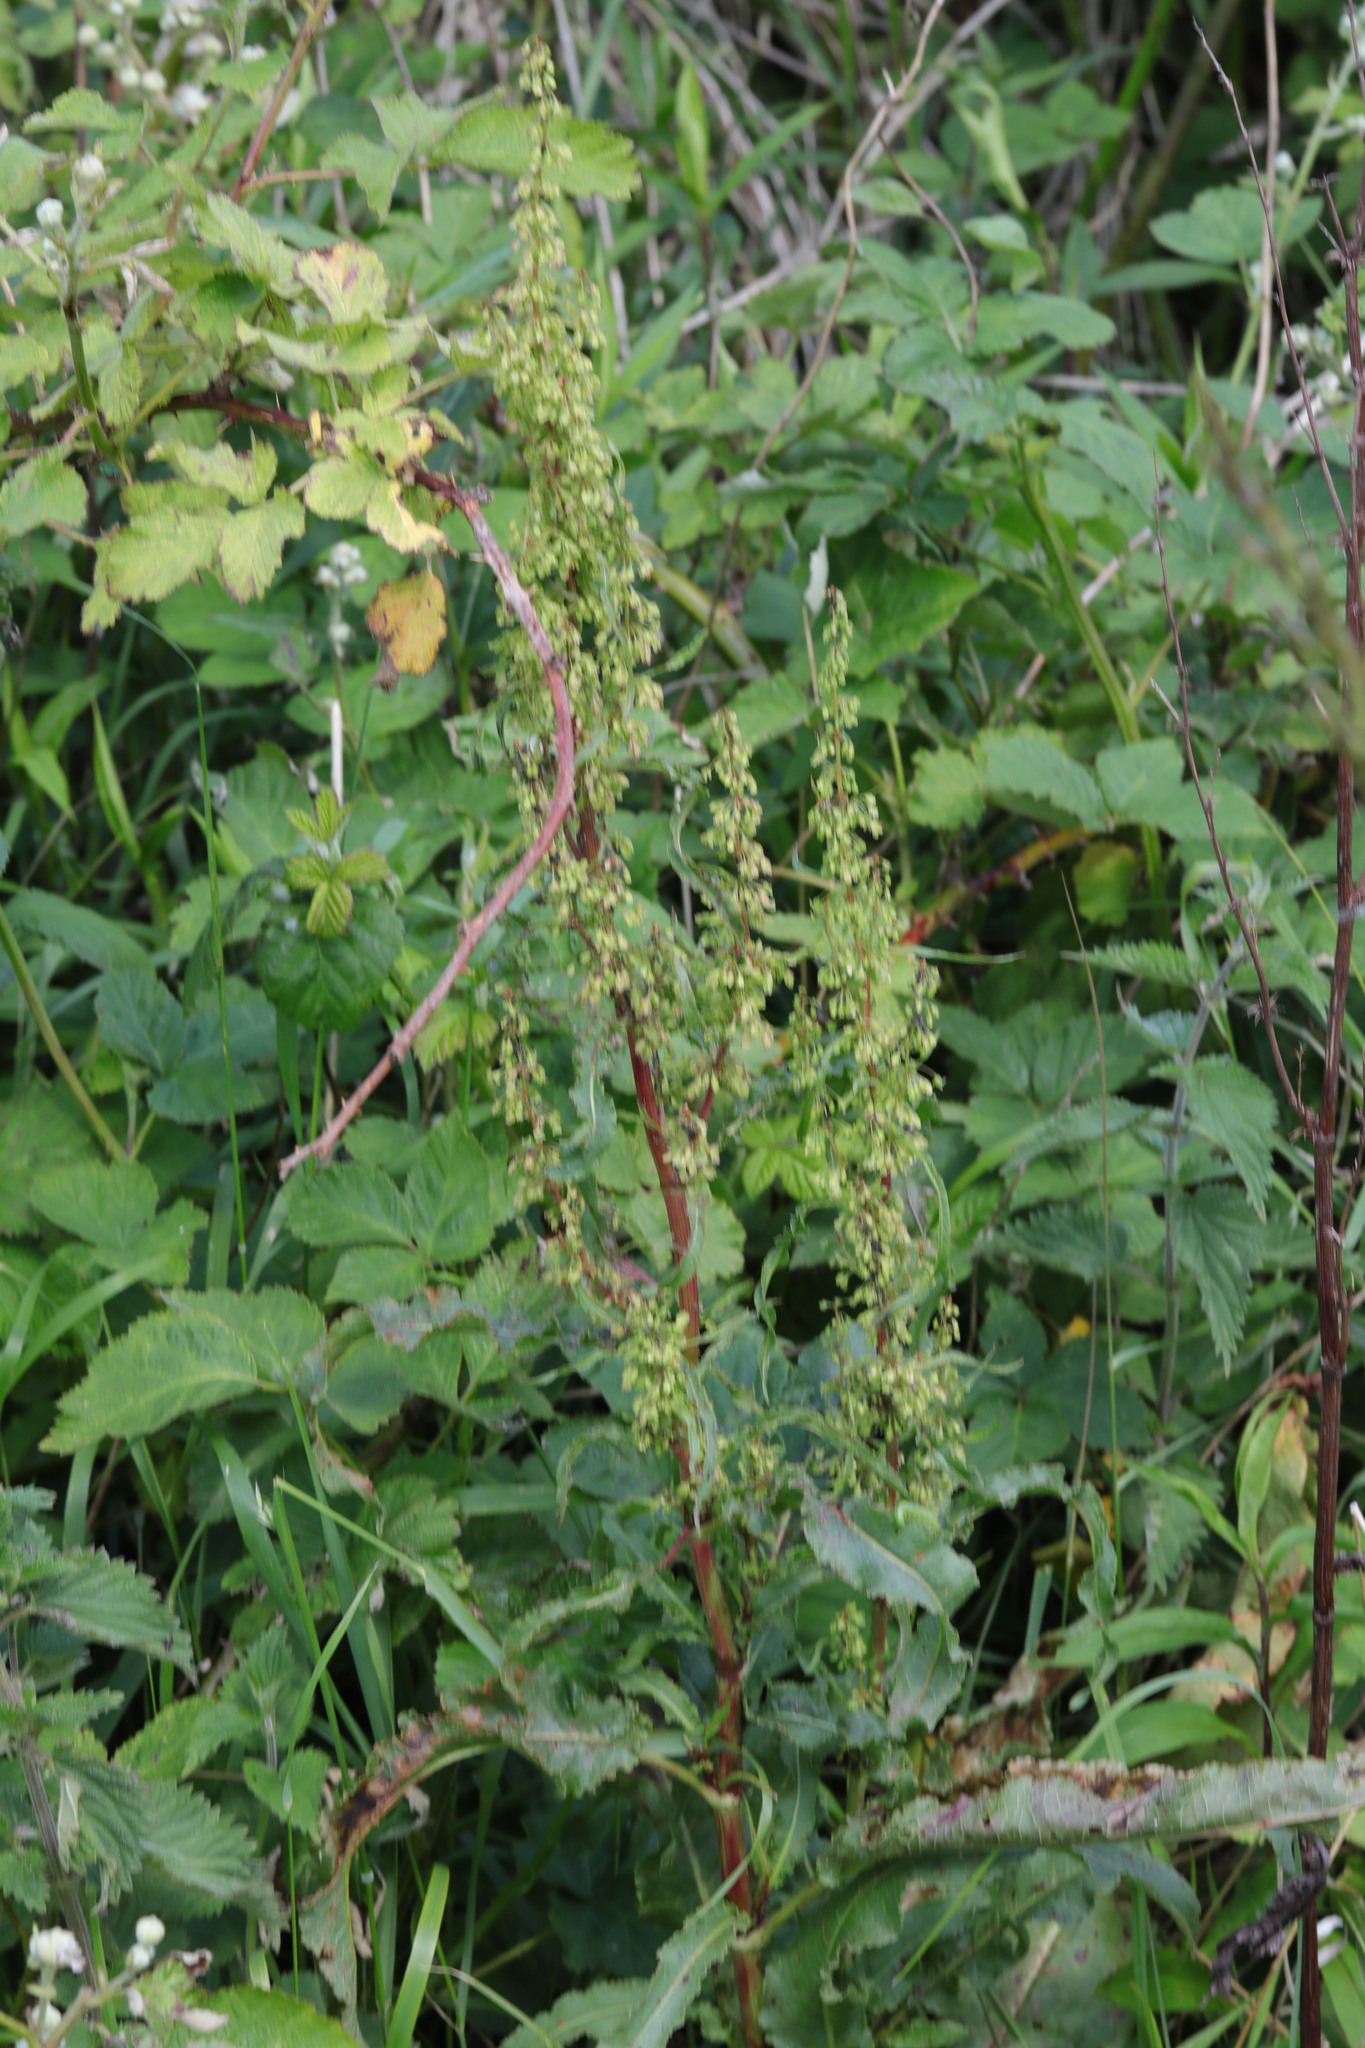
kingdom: Plantae
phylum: Tracheophyta
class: Magnoliopsida
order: Caryophyllales
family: Polygonaceae
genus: Rumex
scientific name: Rumex crispus
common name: Curled dock
